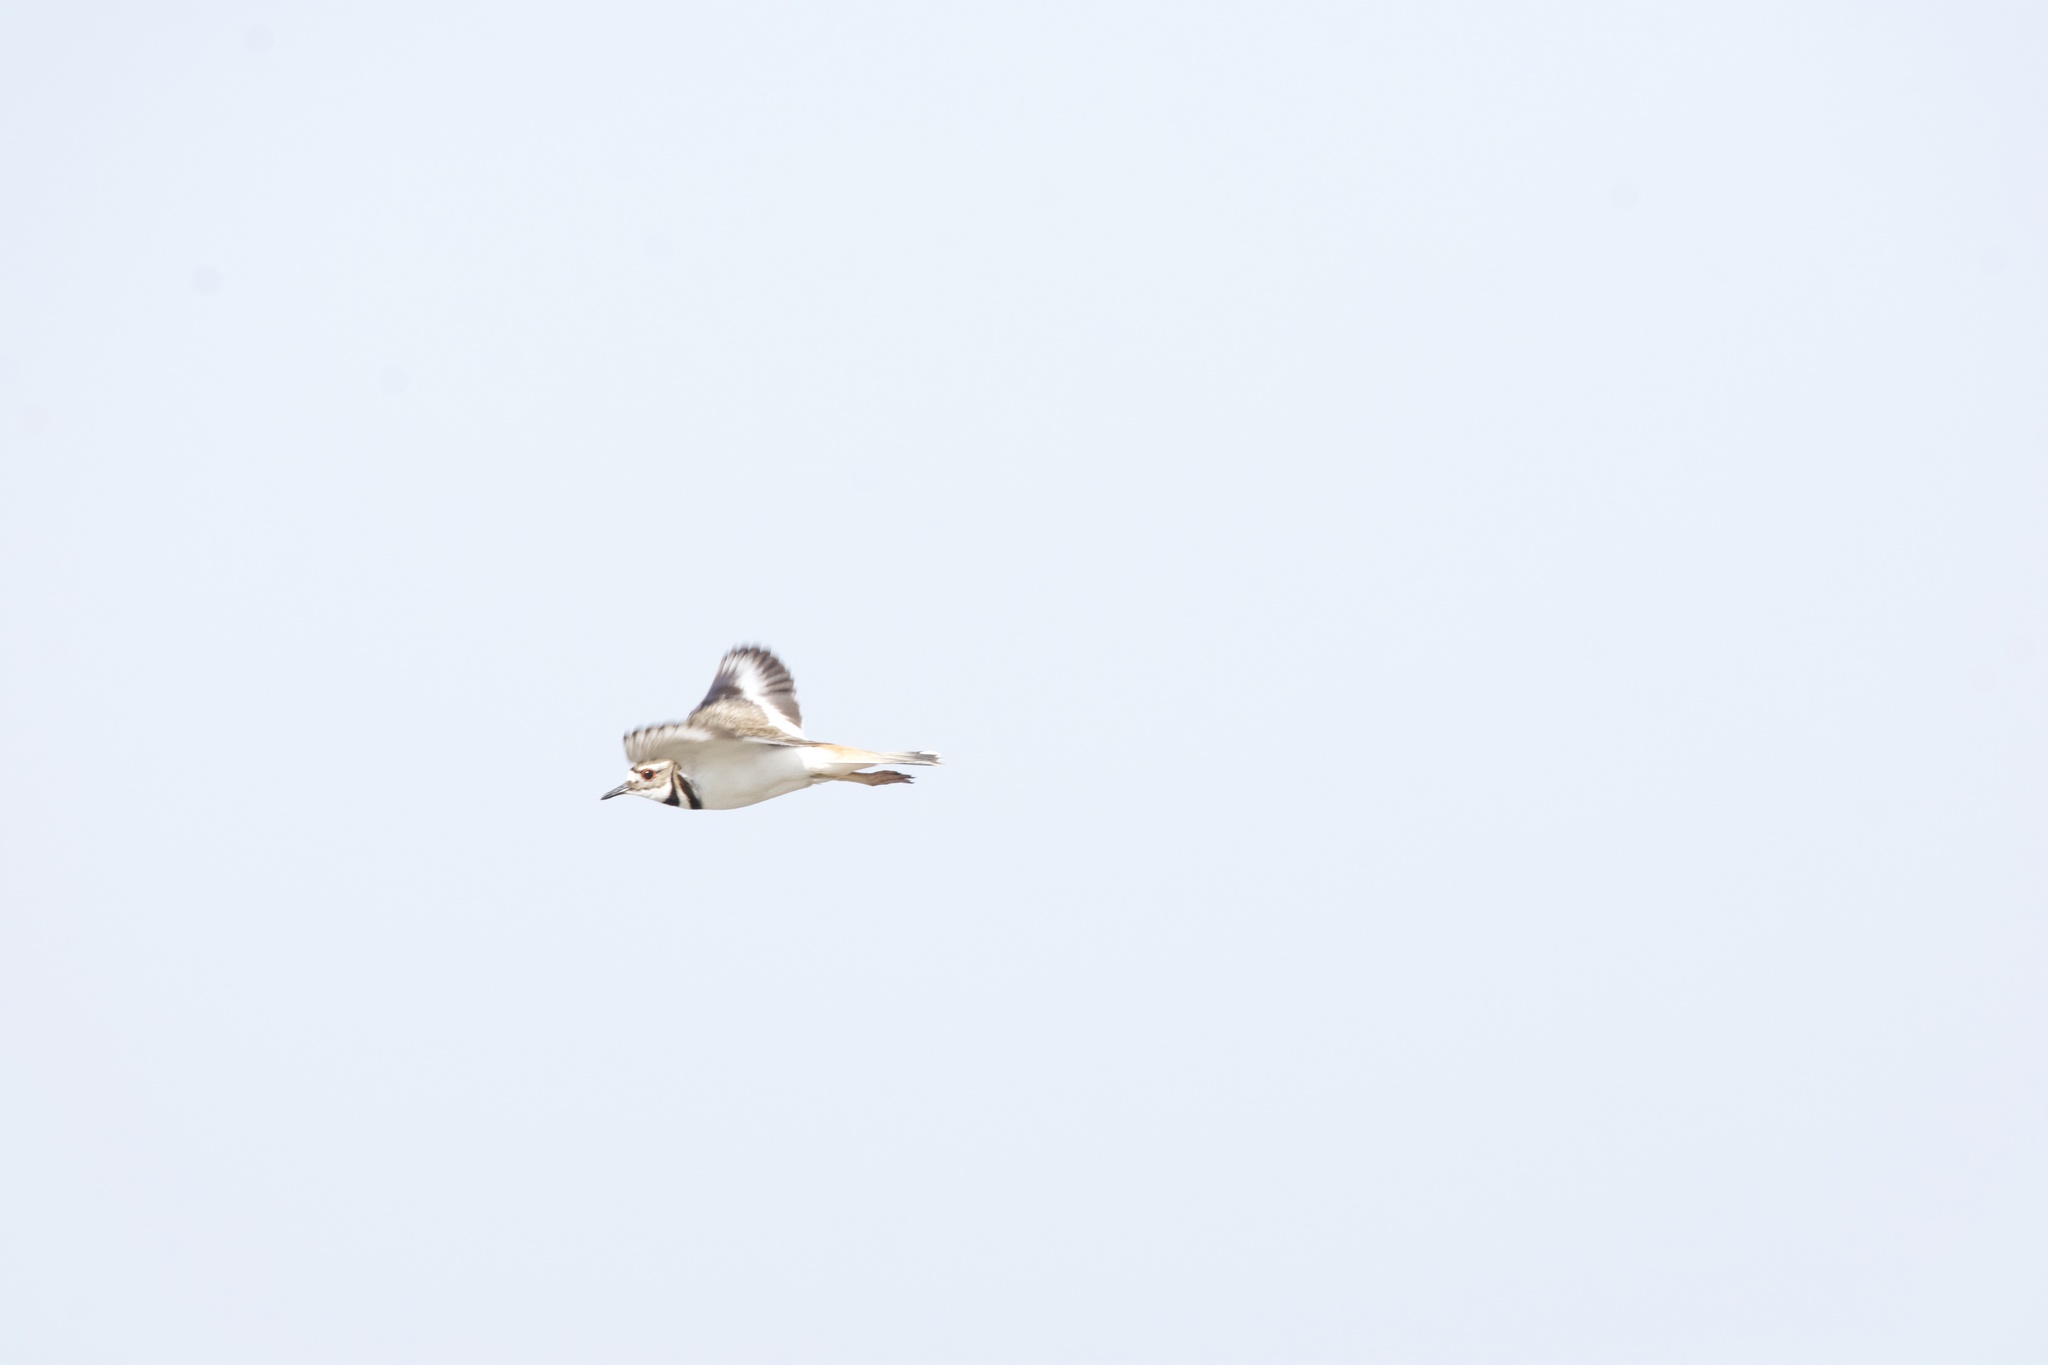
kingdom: Animalia
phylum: Chordata
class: Aves
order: Charadriiformes
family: Charadriidae
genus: Charadrius
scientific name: Charadrius vociferus
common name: Killdeer
